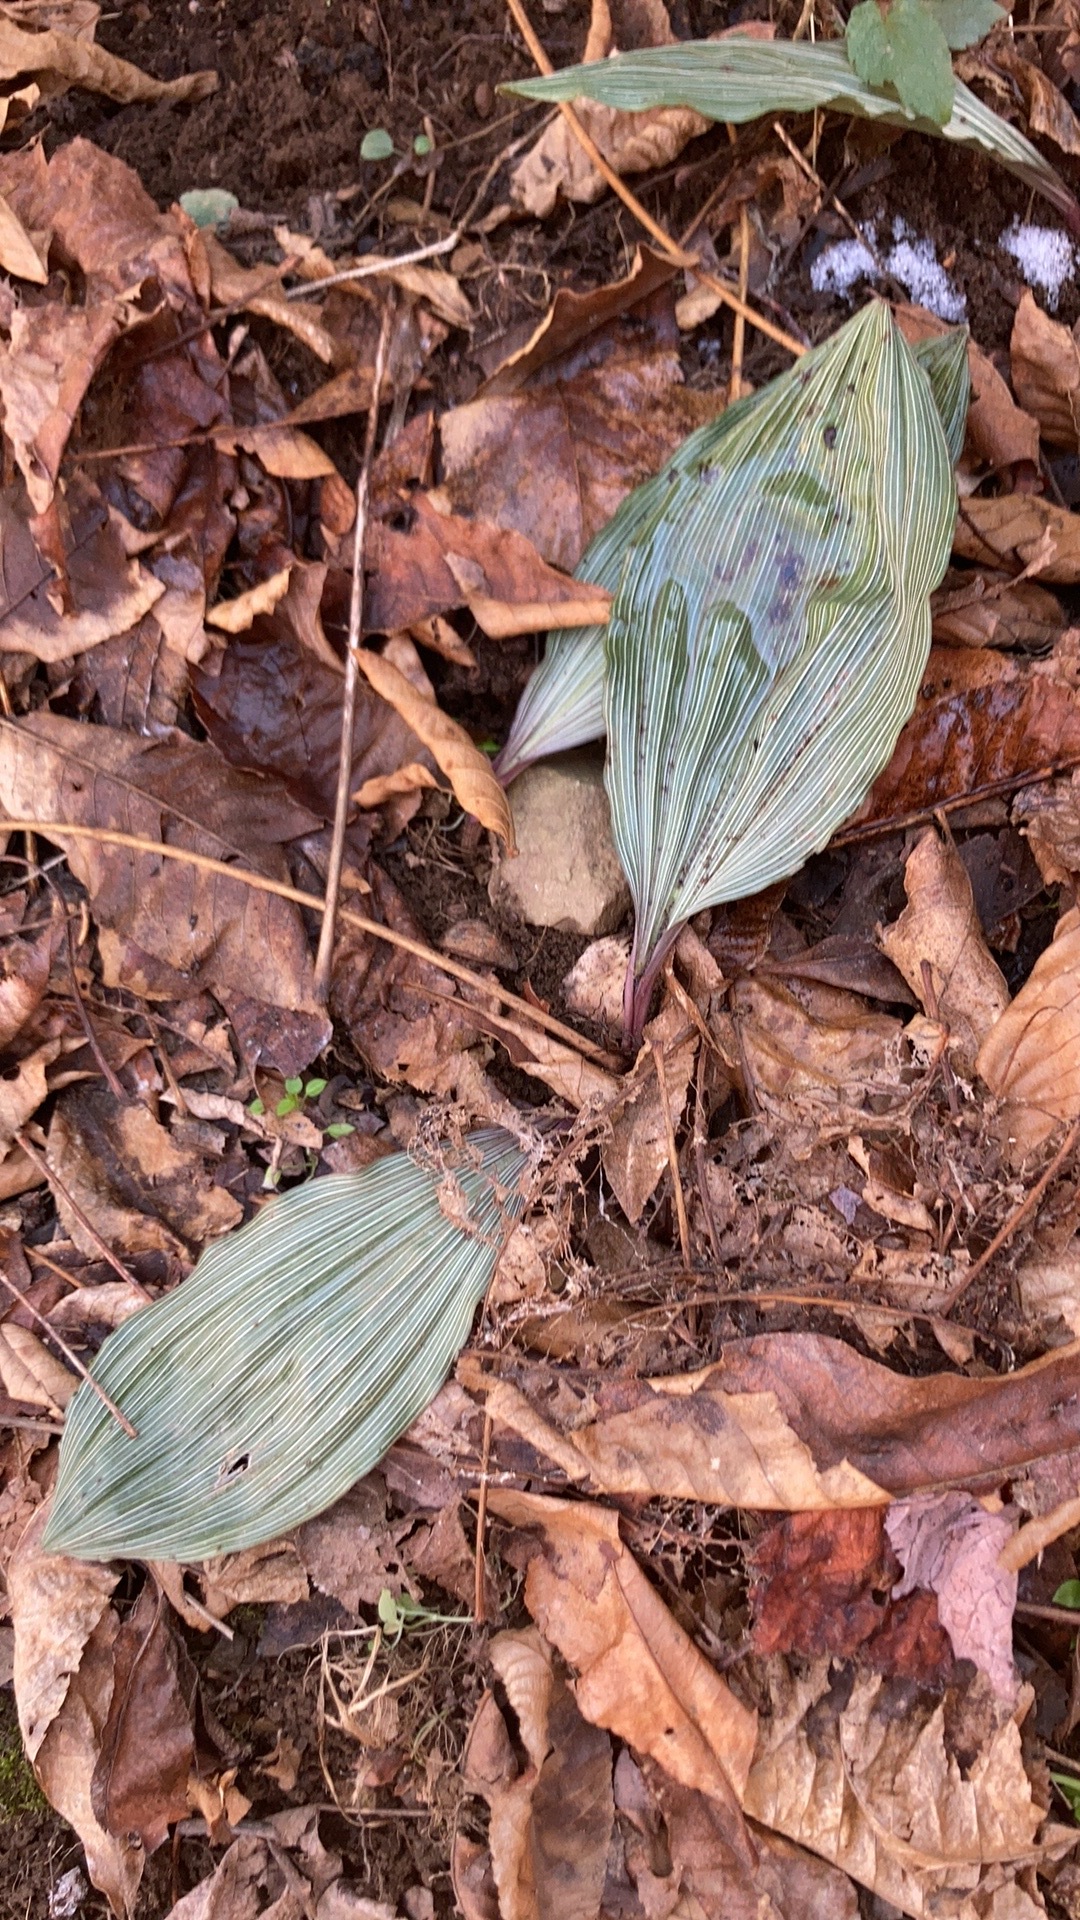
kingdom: Plantae
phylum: Tracheophyta
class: Liliopsida
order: Asparagales
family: Orchidaceae
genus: Aplectrum
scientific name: Aplectrum hyemale
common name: Adam-and-eve
